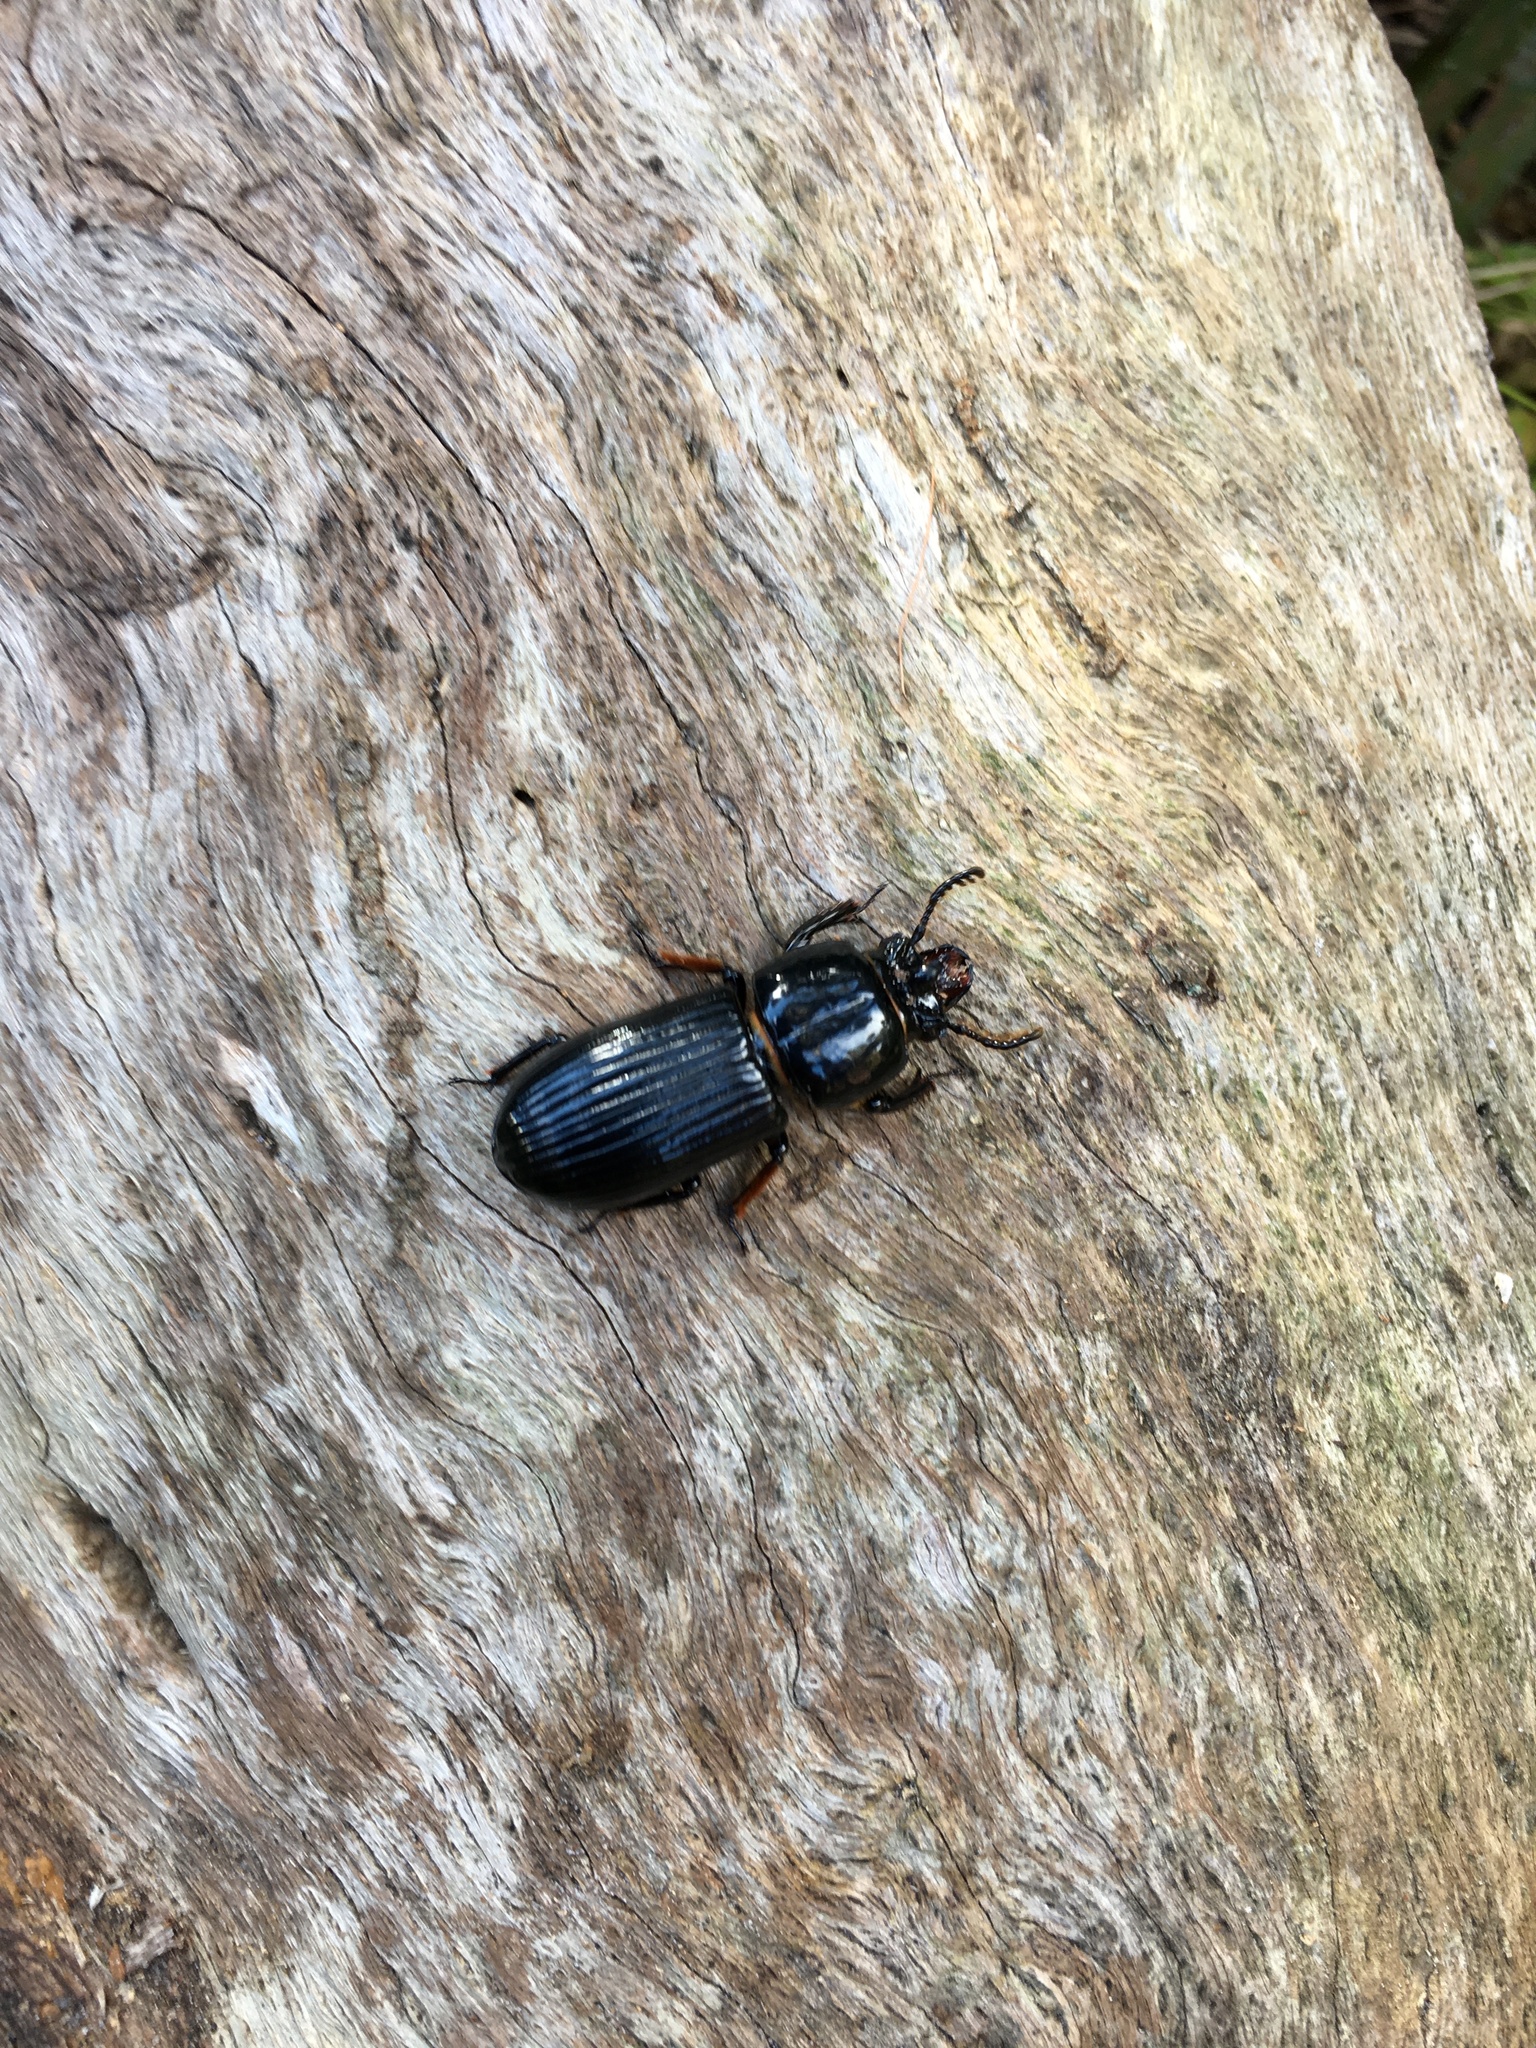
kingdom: Animalia
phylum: Arthropoda
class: Insecta
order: Coleoptera
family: Passalidae
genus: Odontotaenius
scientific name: Odontotaenius disjunctus
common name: Patent leather beetle
